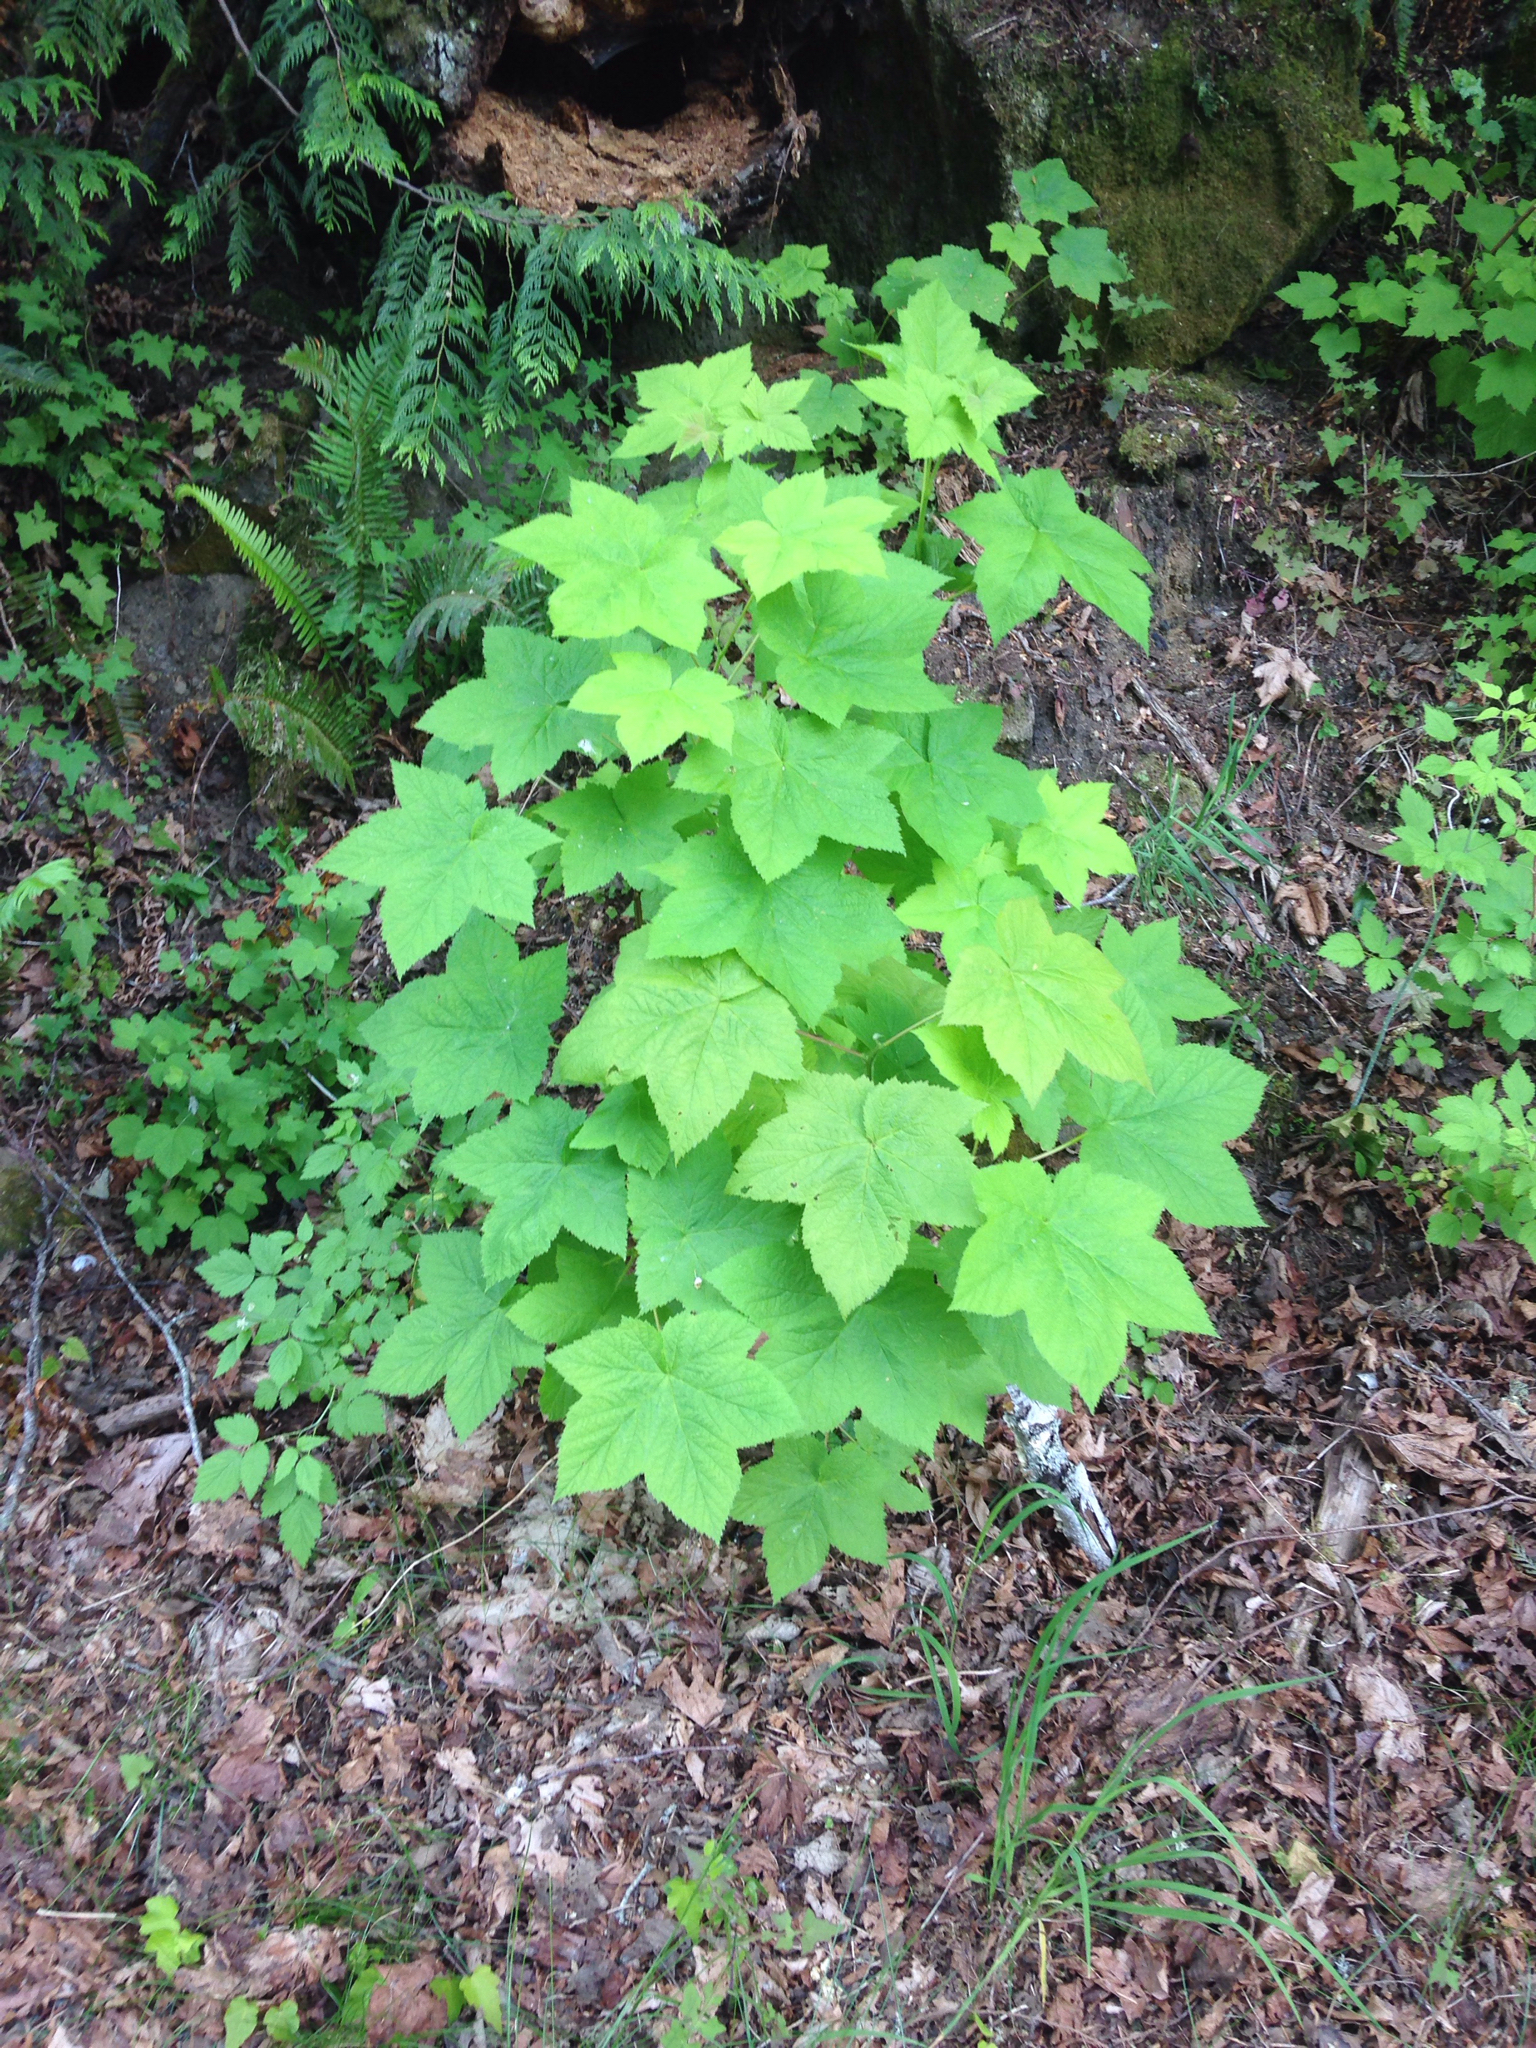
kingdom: Plantae
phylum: Tracheophyta
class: Magnoliopsida
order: Rosales
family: Rosaceae
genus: Rubus
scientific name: Rubus parviflorus
